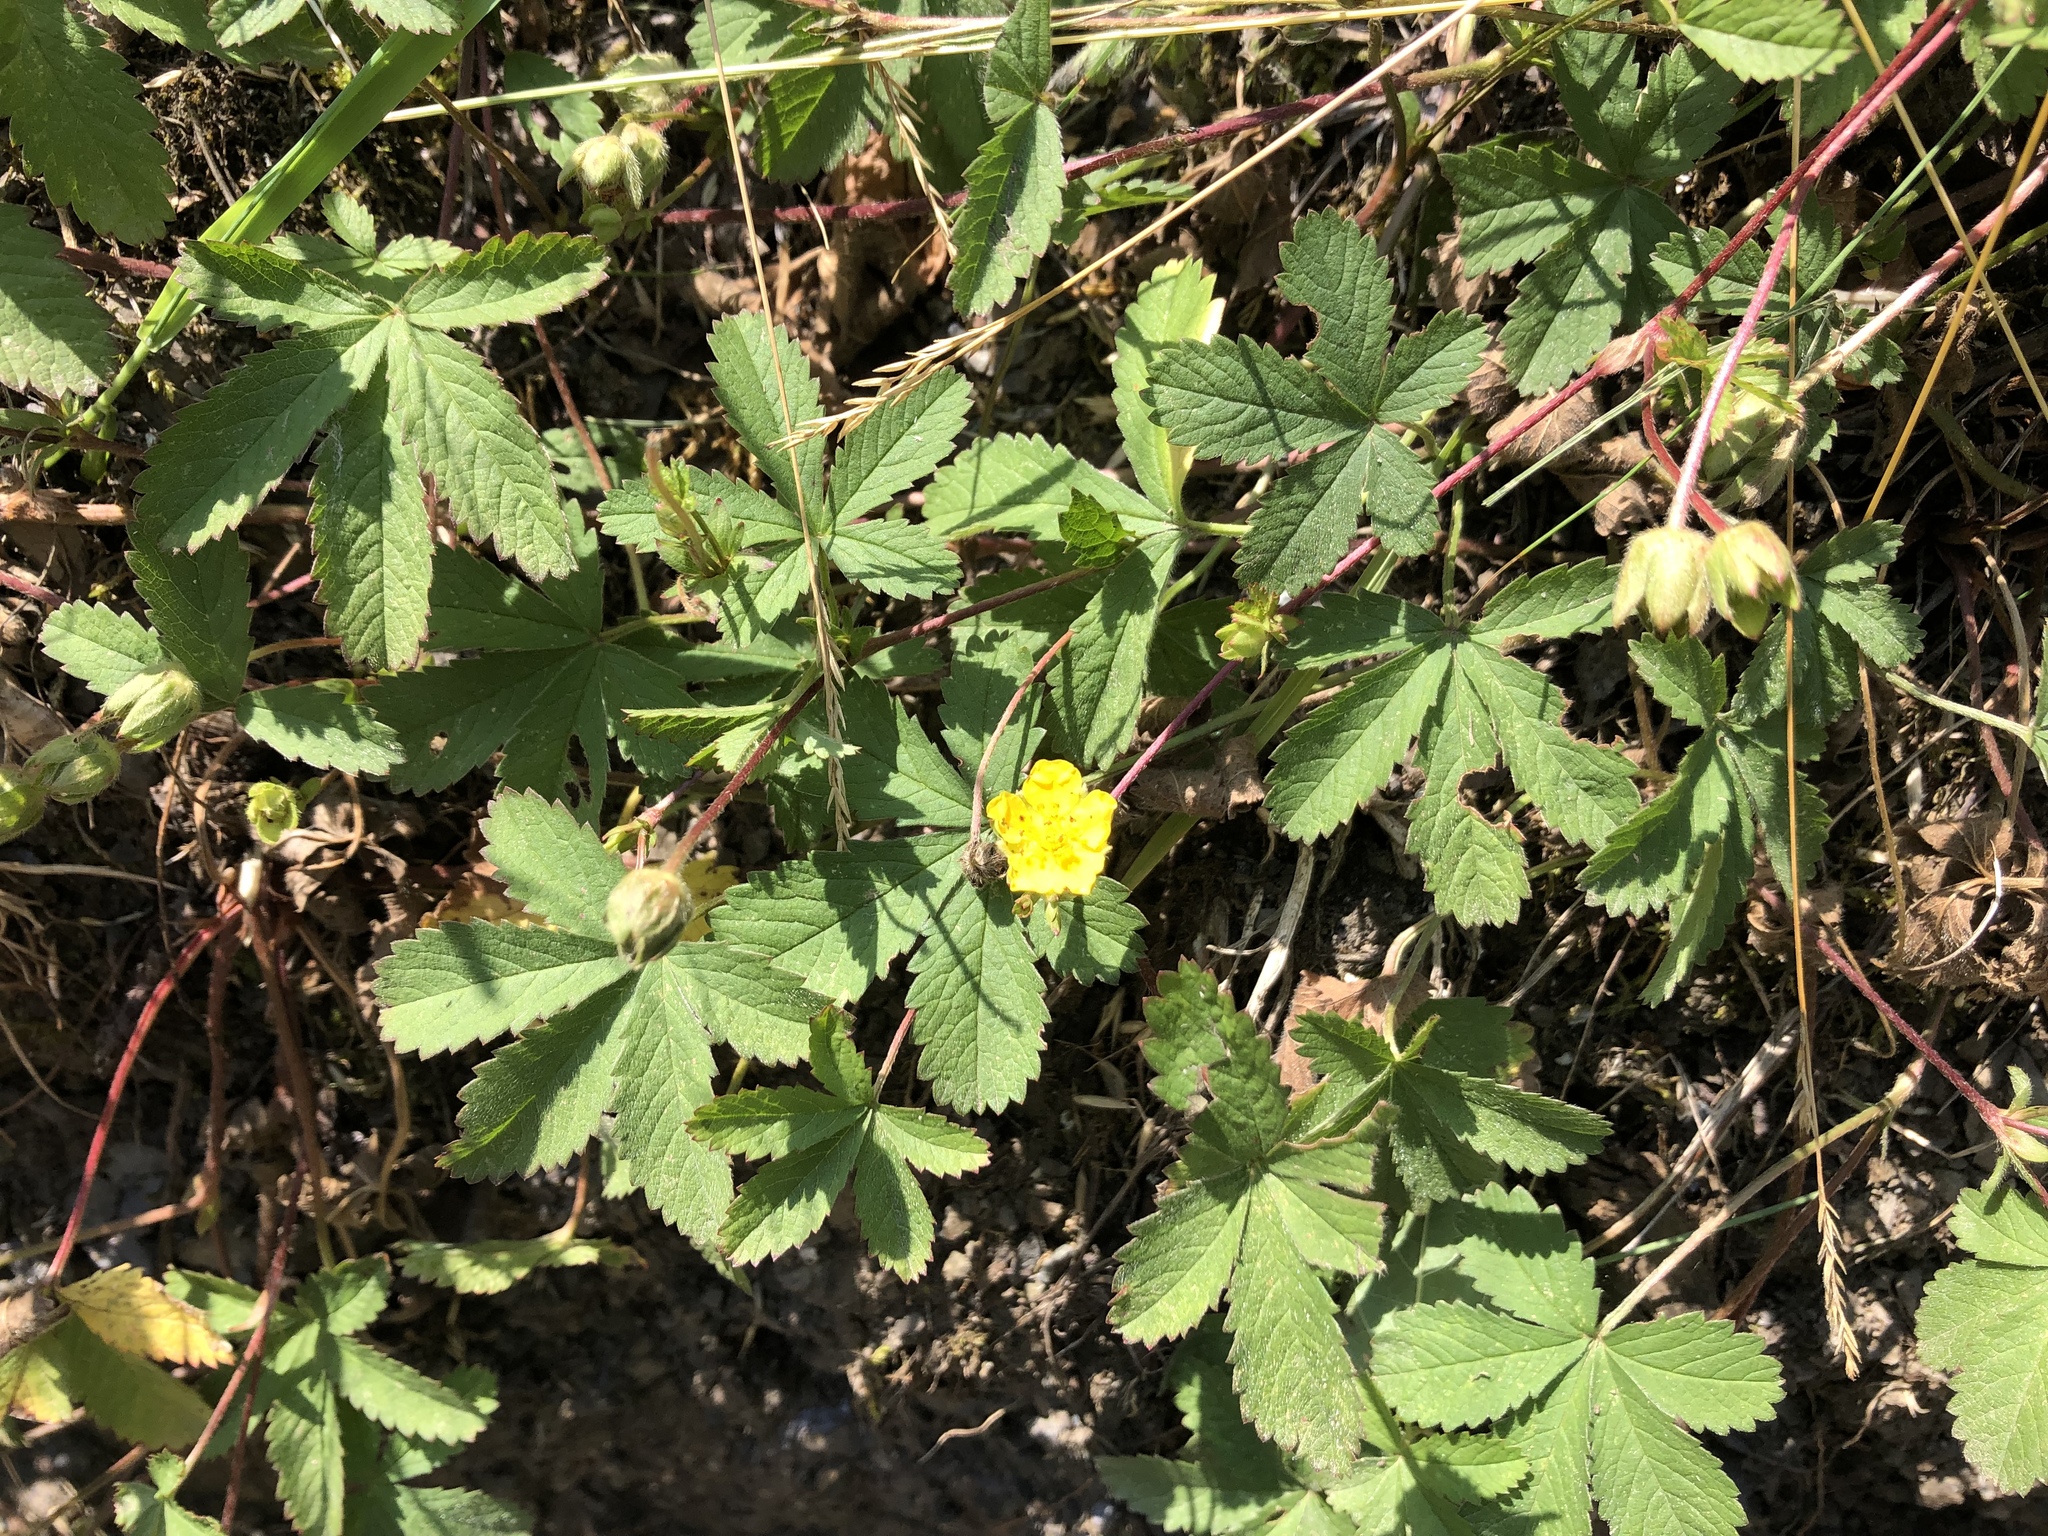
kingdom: Plantae
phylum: Tracheophyta
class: Magnoliopsida
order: Rosales
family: Rosaceae
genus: Potentilla
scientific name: Potentilla reptans
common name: Creeping cinquefoil
